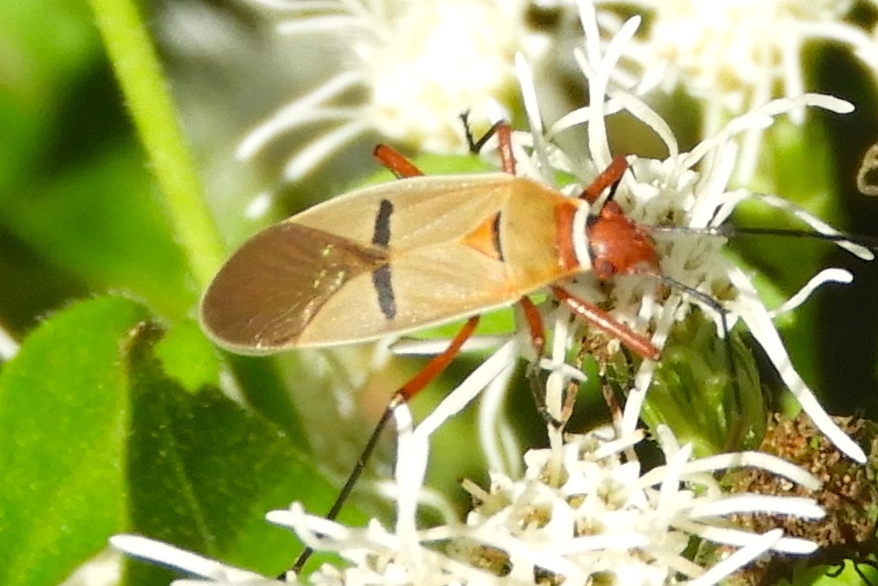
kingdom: Animalia
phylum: Arthropoda
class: Insecta
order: Hemiptera
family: Pyrrhocoridae
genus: Dysdercus
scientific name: Dysdercus
